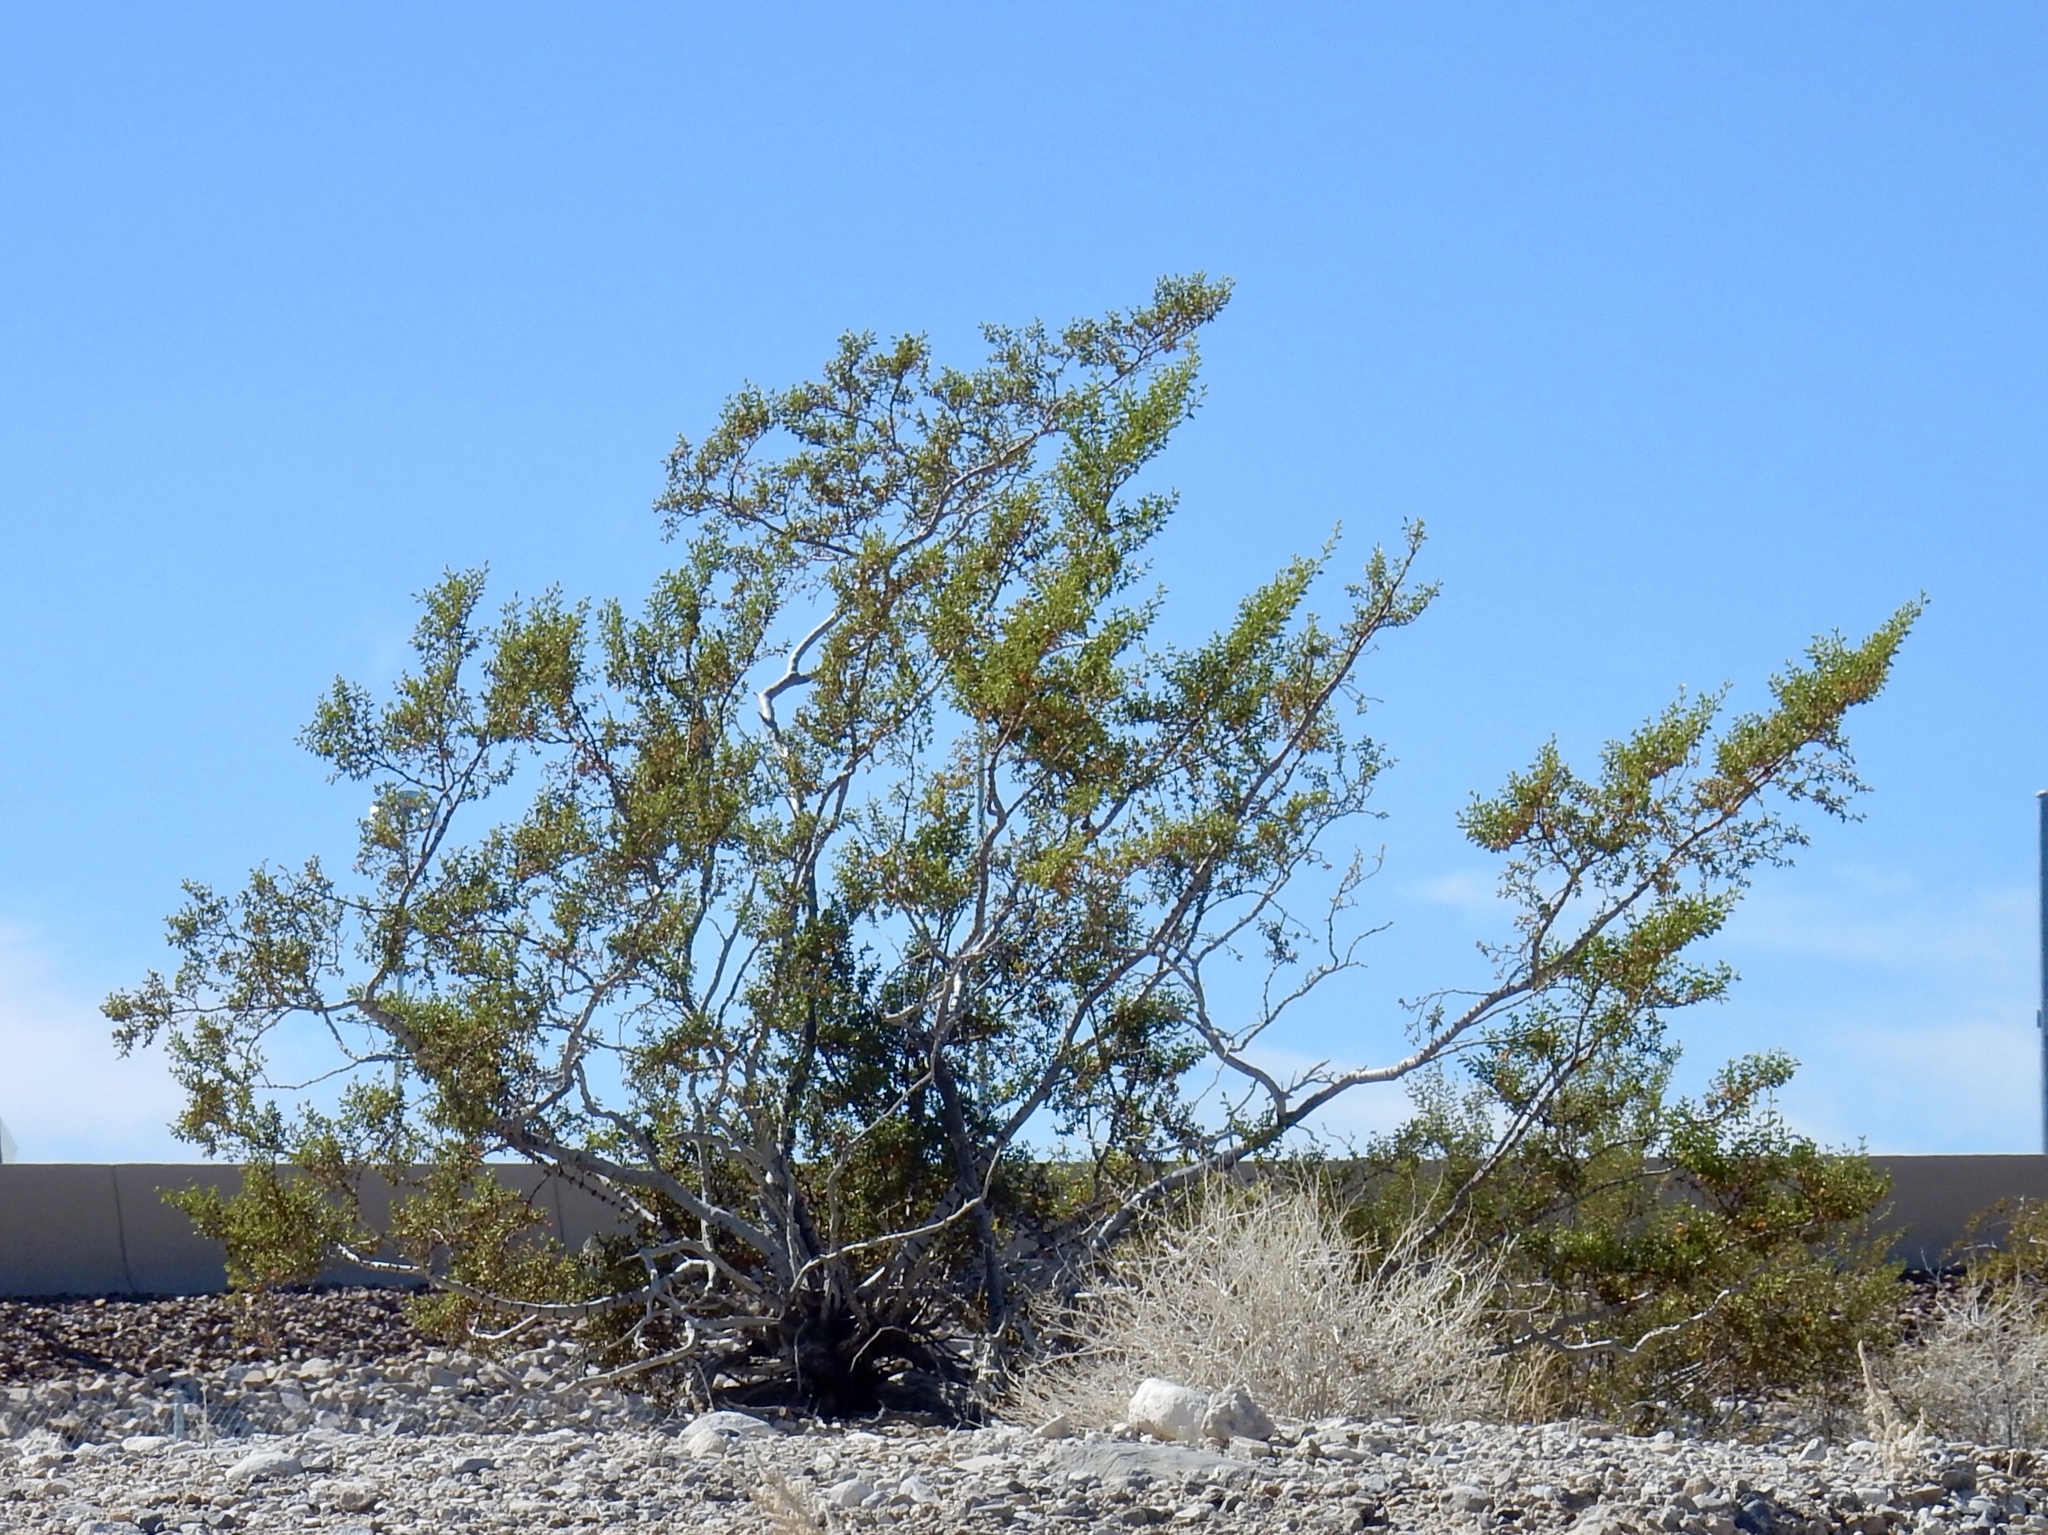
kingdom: Plantae
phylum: Tracheophyta
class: Magnoliopsida
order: Zygophyllales
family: Zygophyllaceae
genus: Larrea
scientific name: Larrea tridentata
